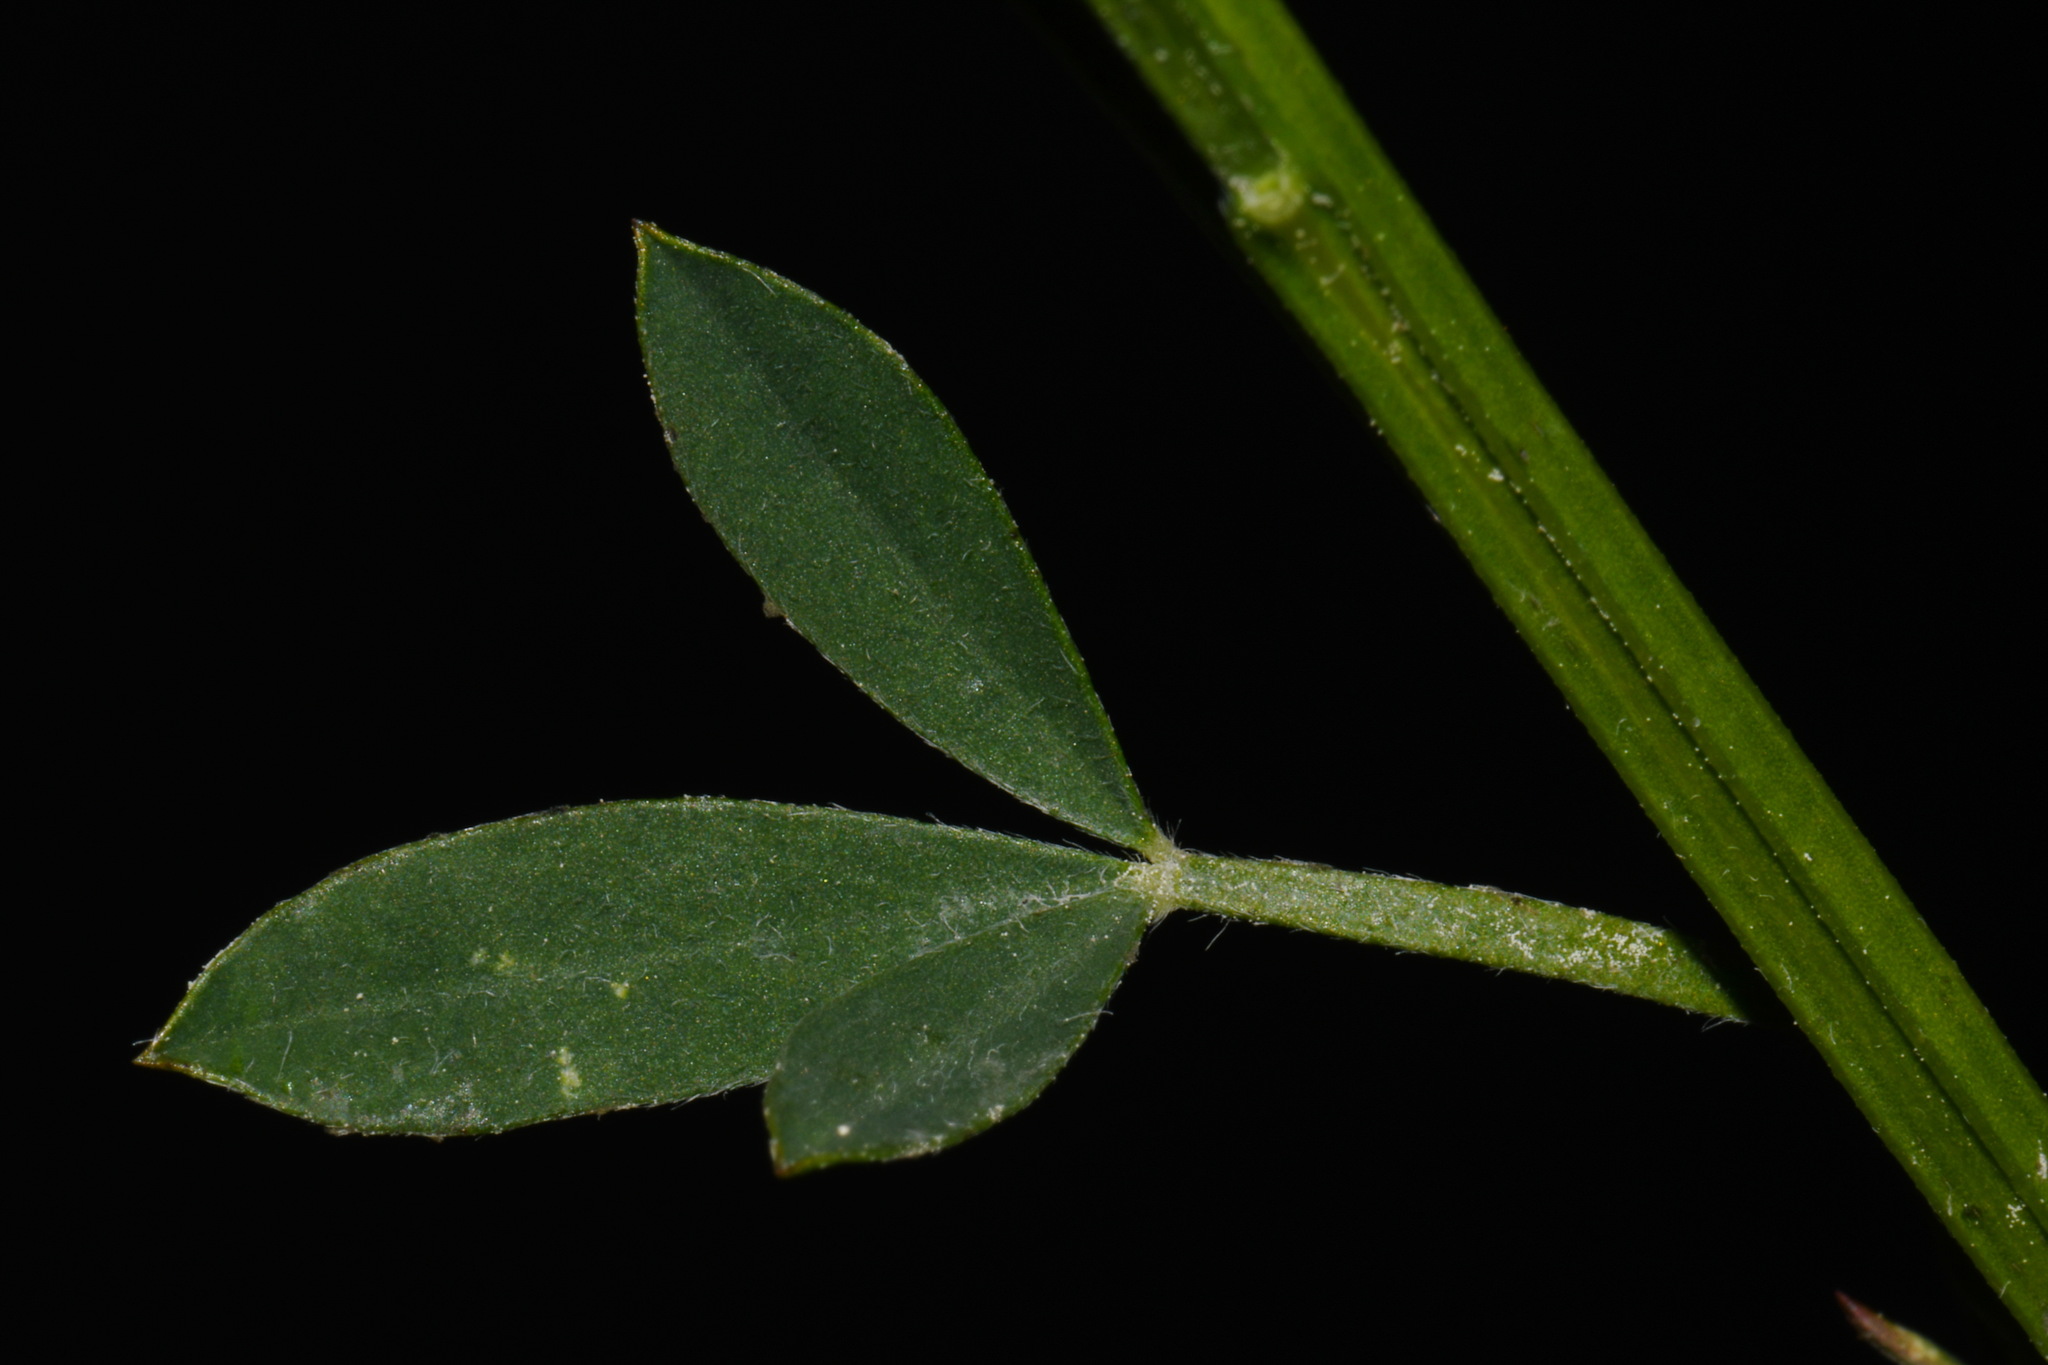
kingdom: Plantae
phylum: Tracheophyta
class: Magnoliopsida
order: Fabales
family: Fabaceae
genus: Cytisus
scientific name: Cytisus scoparius
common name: Scotch broom
